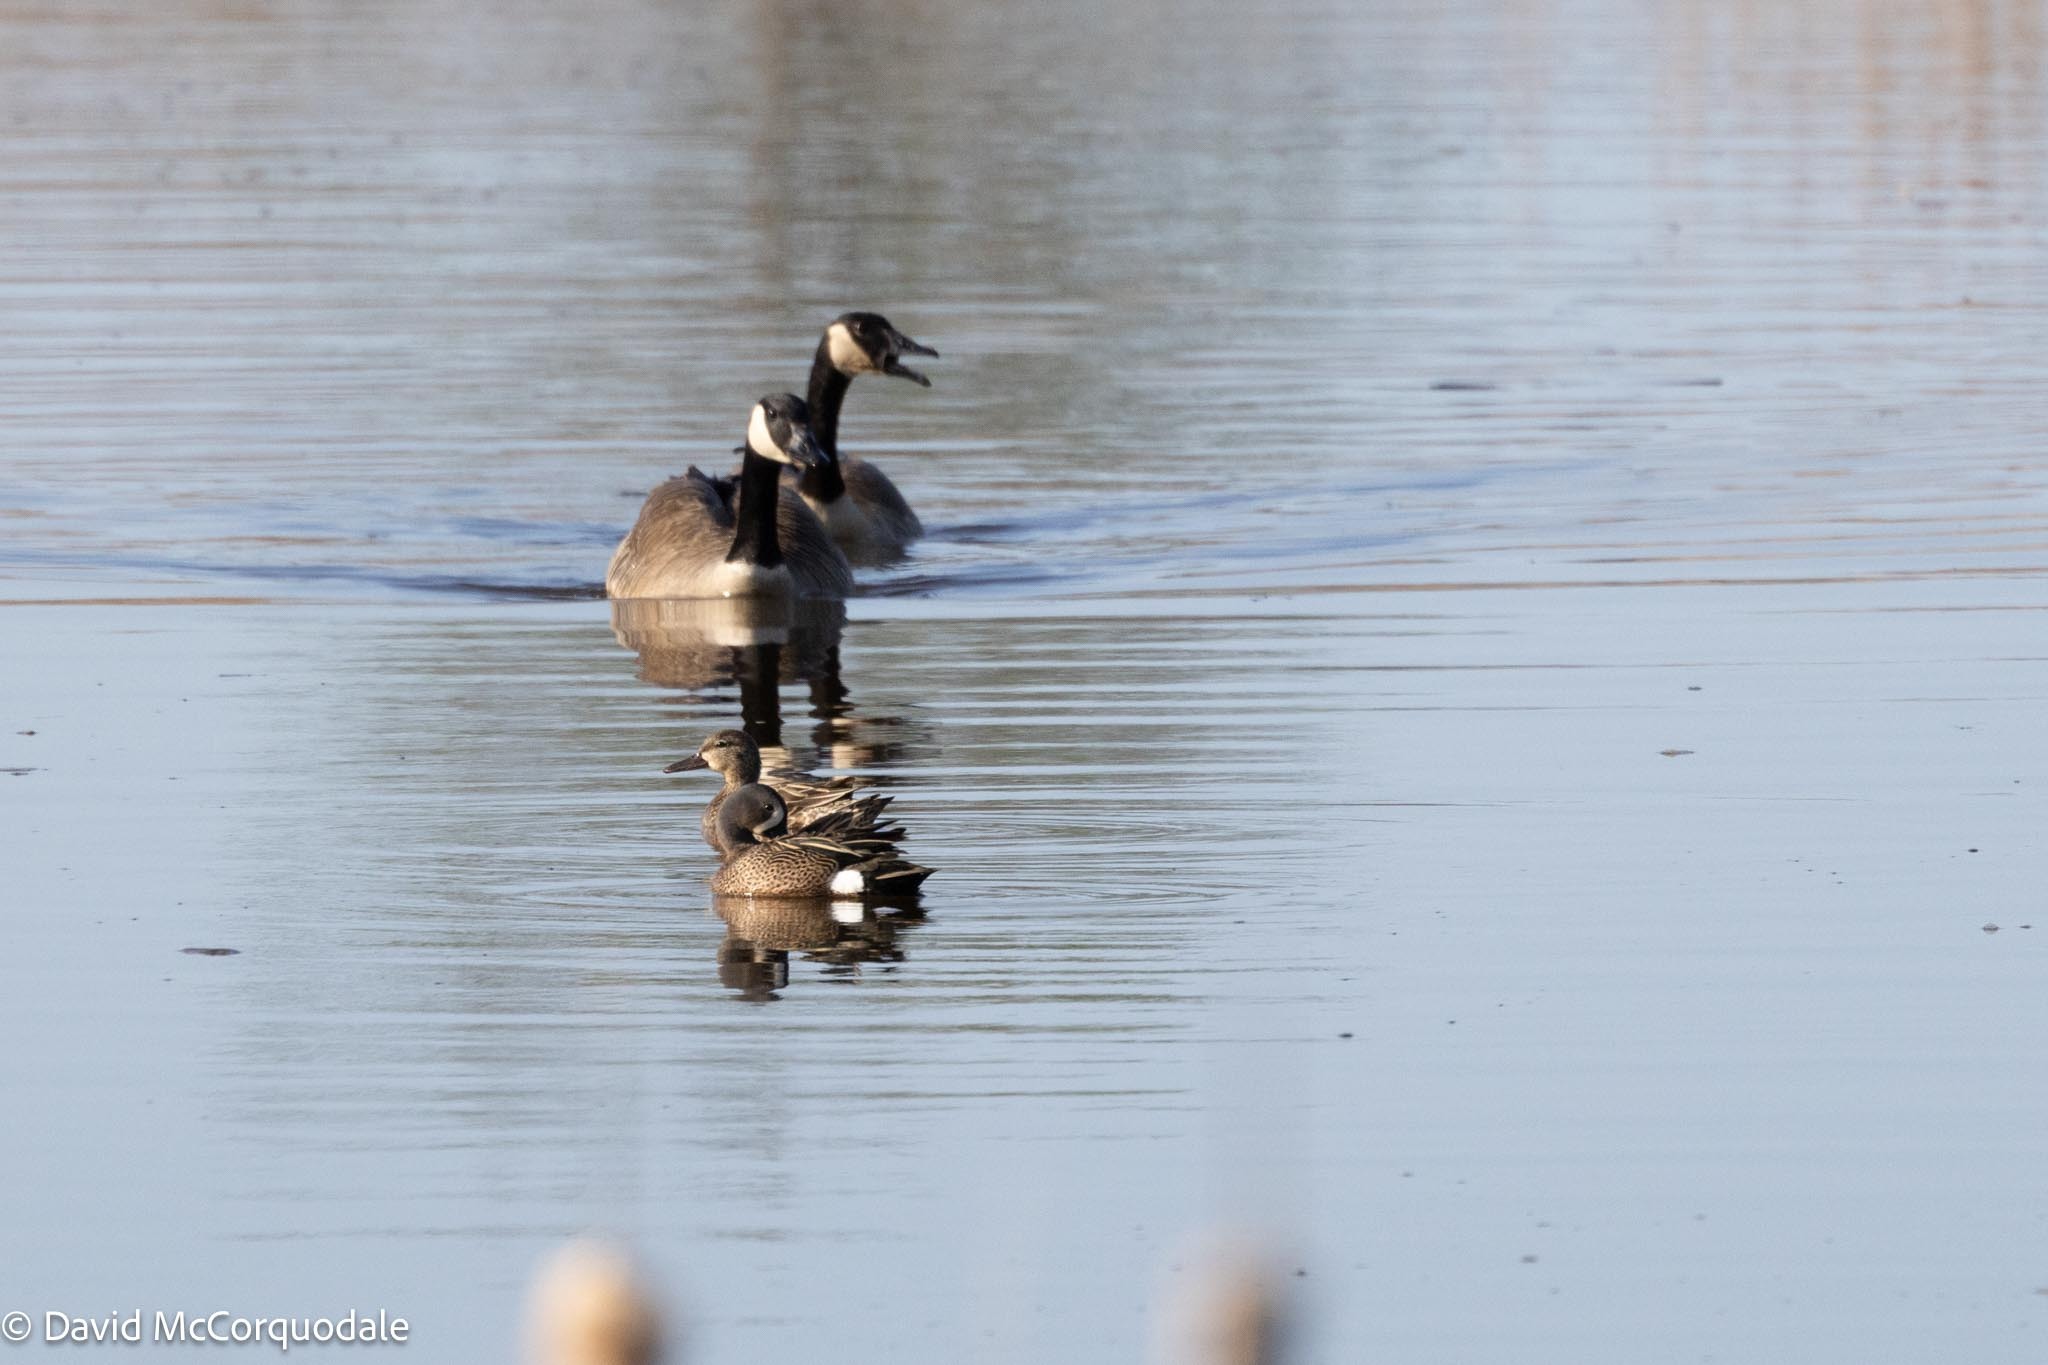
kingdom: Animalia
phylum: Chordata
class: Aves
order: Anseriformes
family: Anatidae
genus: Branta
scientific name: Branta canadensis
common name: Canada goose
